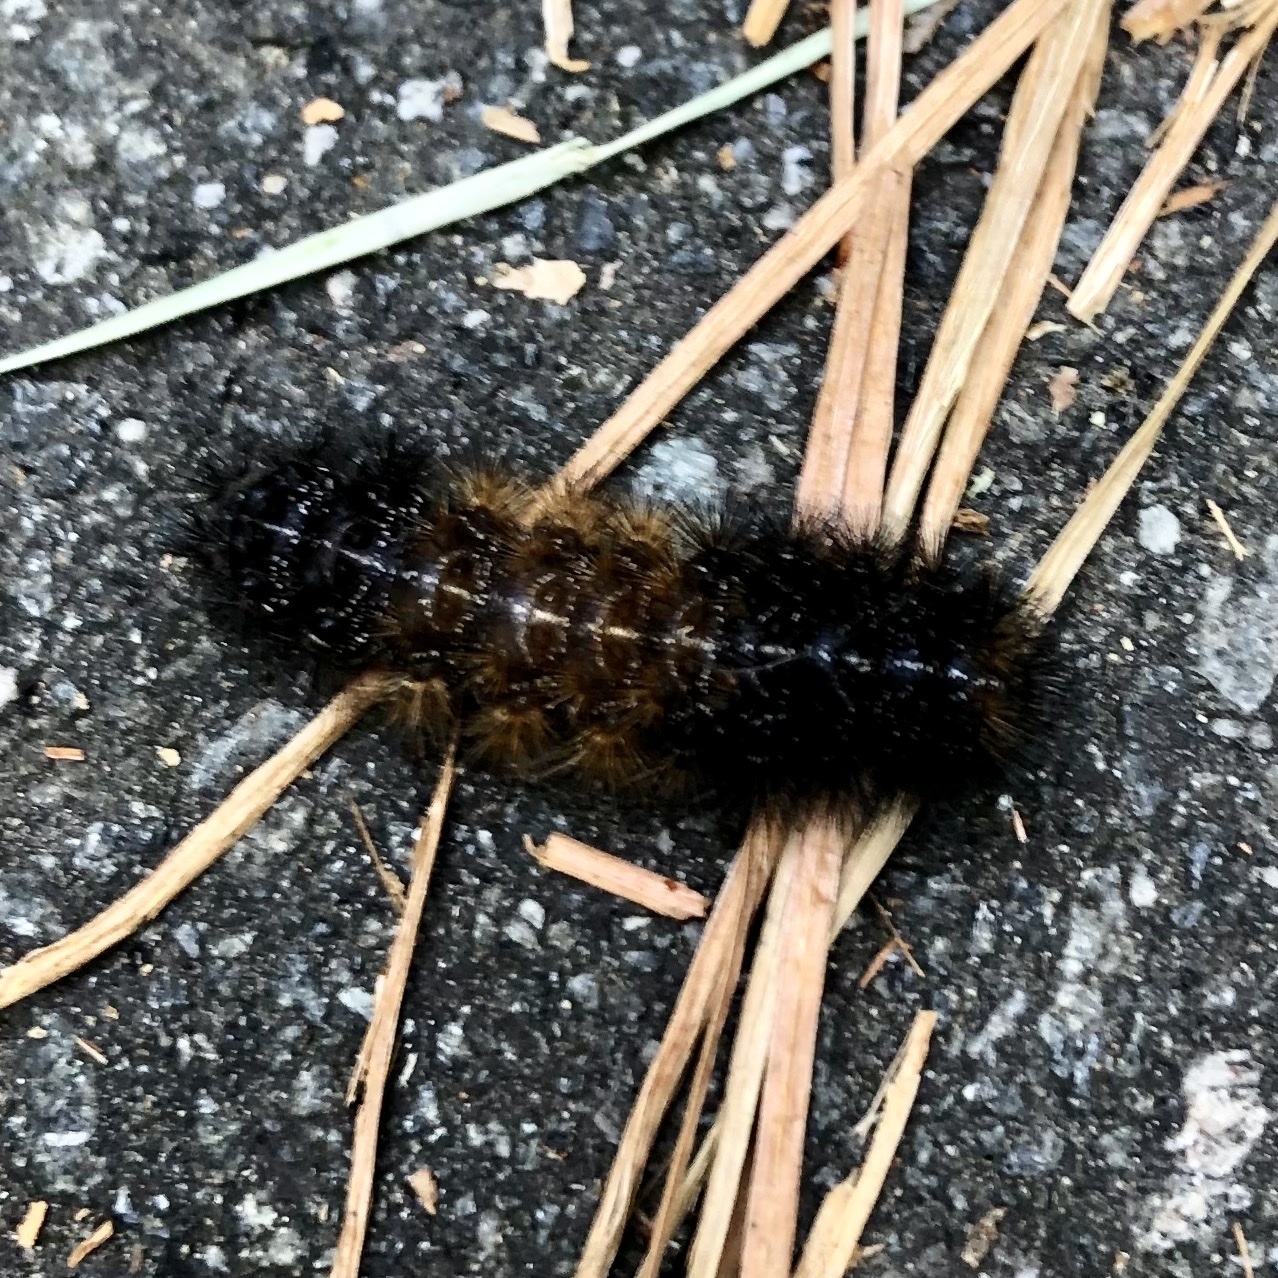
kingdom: Animalia
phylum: Arthropoda
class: Insecta
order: Lepidoptera
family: Erebidae
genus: Pyrrharctia
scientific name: Pyrrharctia isabella
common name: Isabella tiger moth
